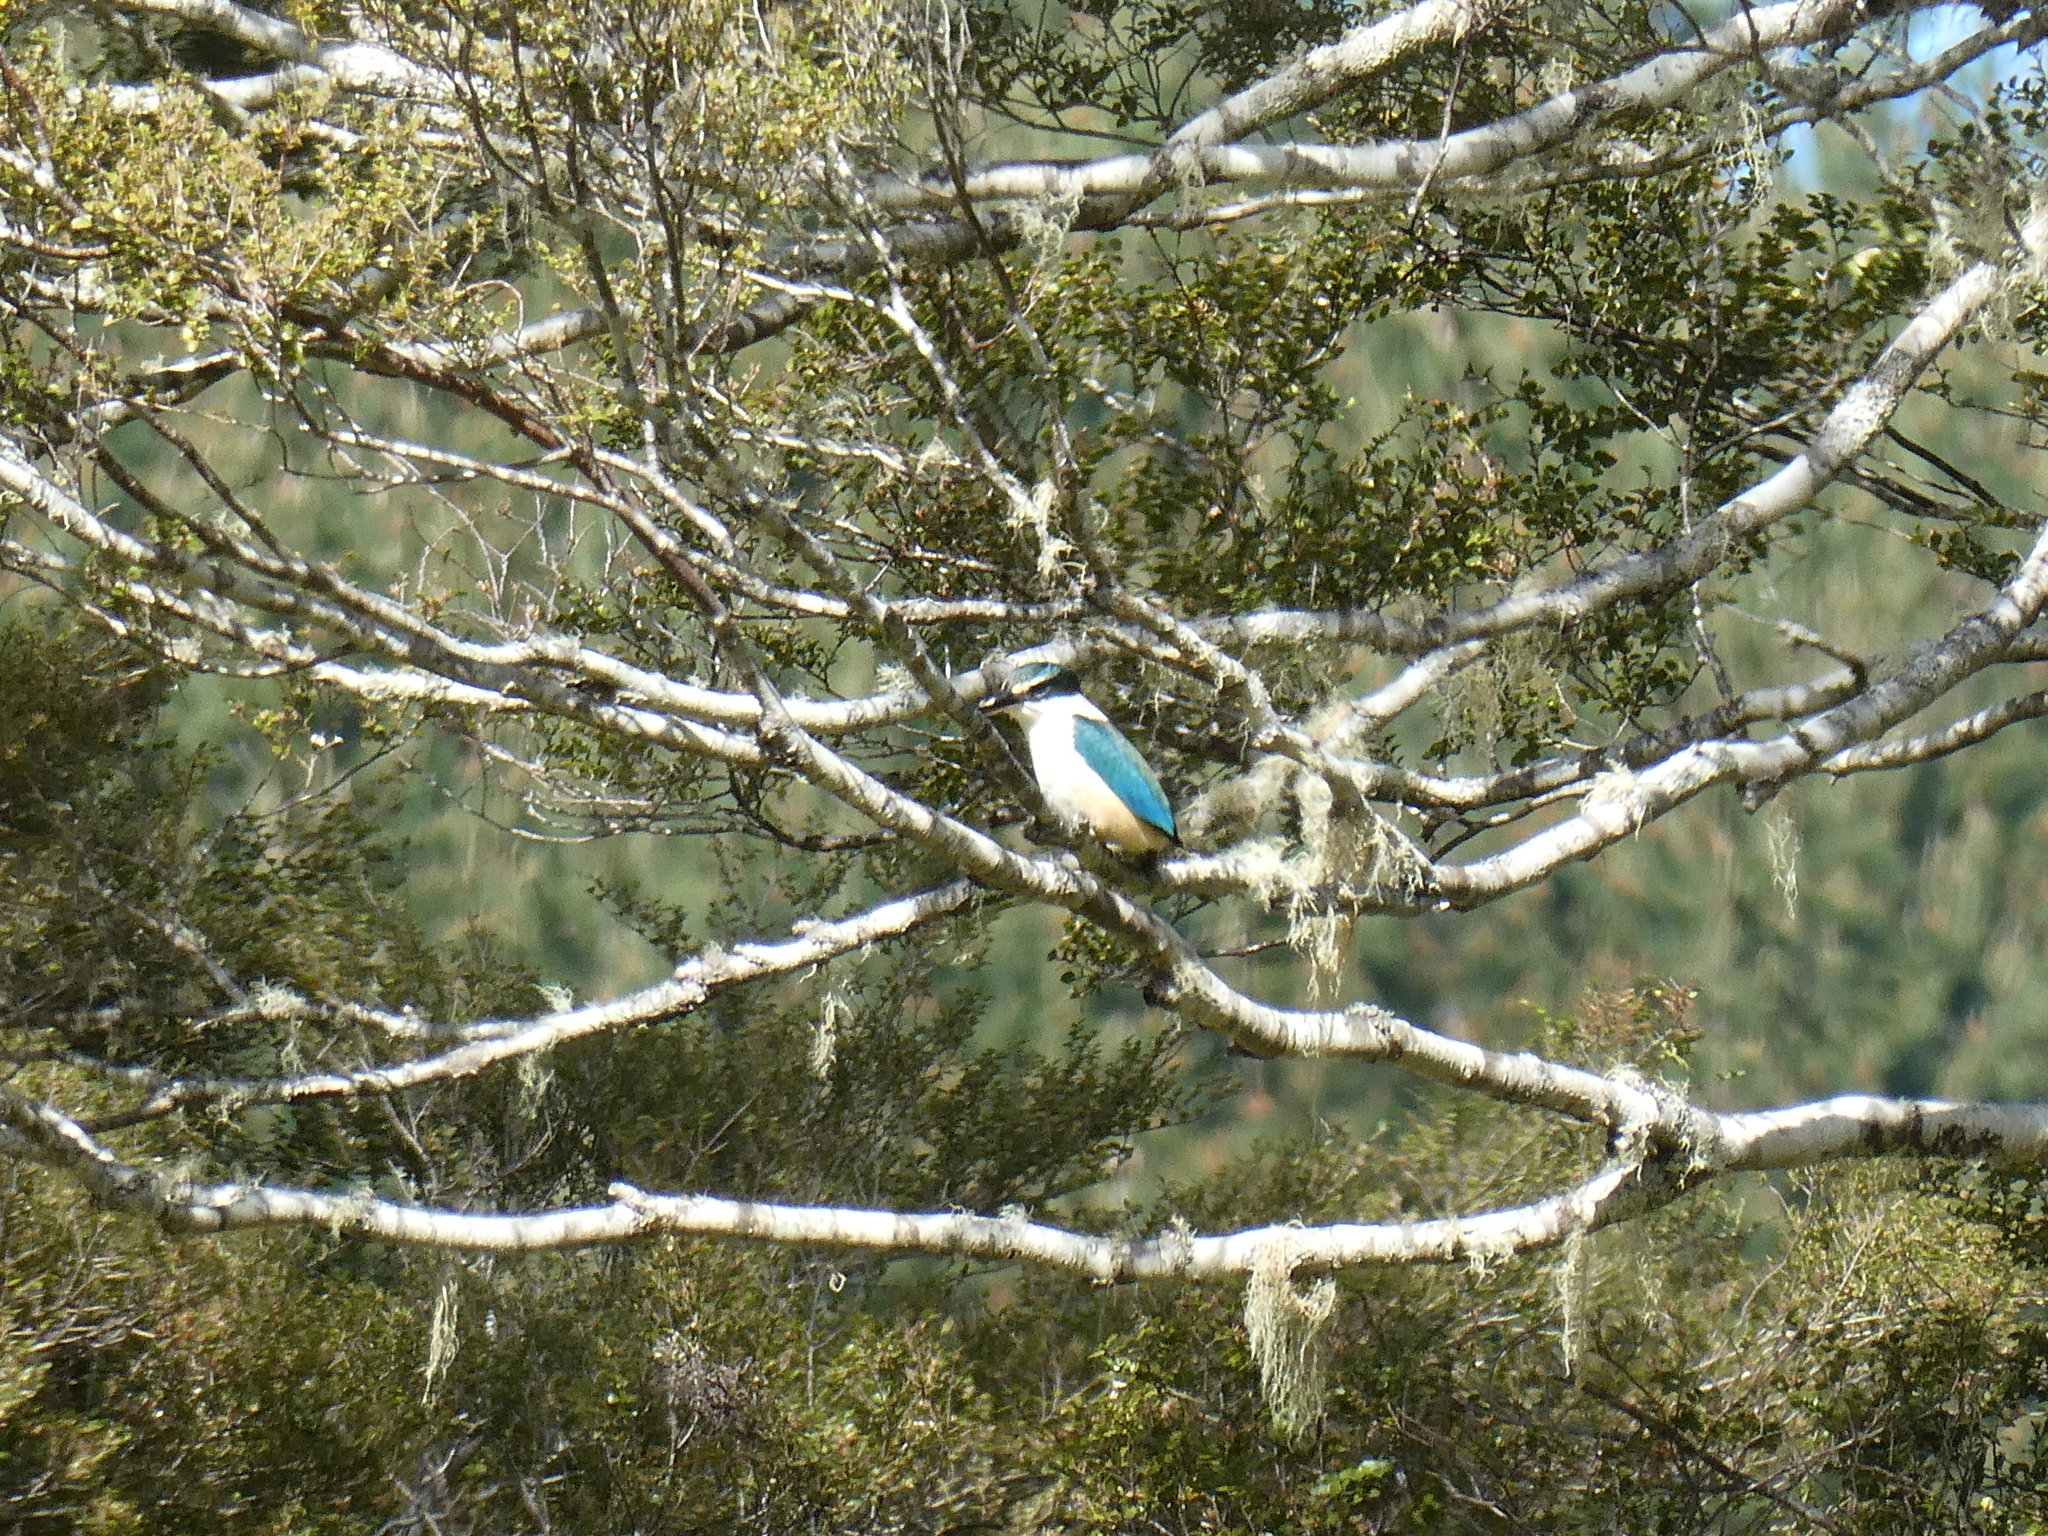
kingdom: Animalia
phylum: Chordata
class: Aves
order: Coraciiformes
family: Alcedinidae
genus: Todiramphus
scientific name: Todiramphus sanctus
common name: Sacred kingfisher
